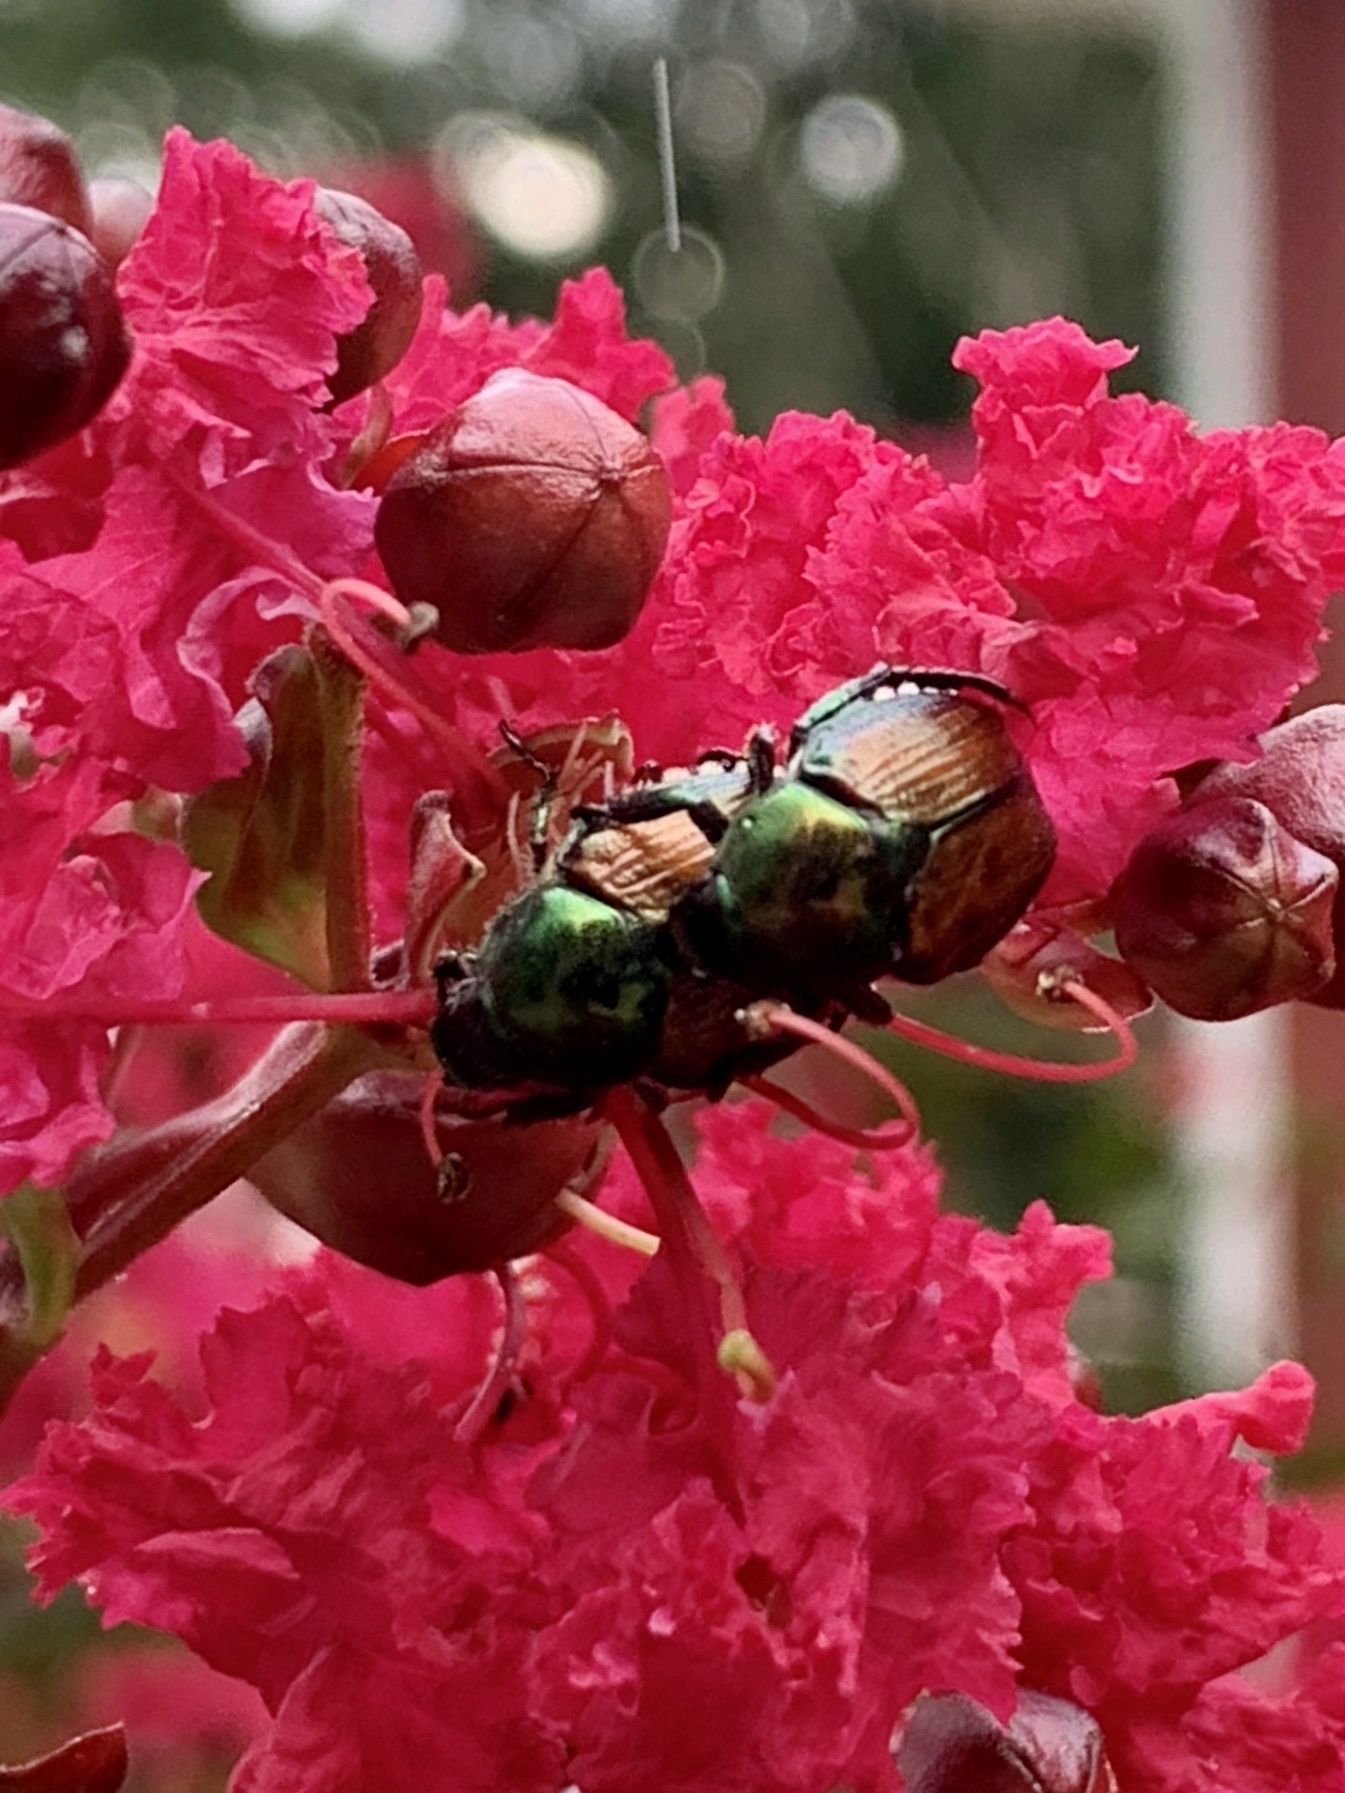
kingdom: Animalia
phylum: Arthropoda
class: Insecta
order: Coleoptera
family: Scarabaeidae
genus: Popillia
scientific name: Popillia japonica
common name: Japanese beetle
